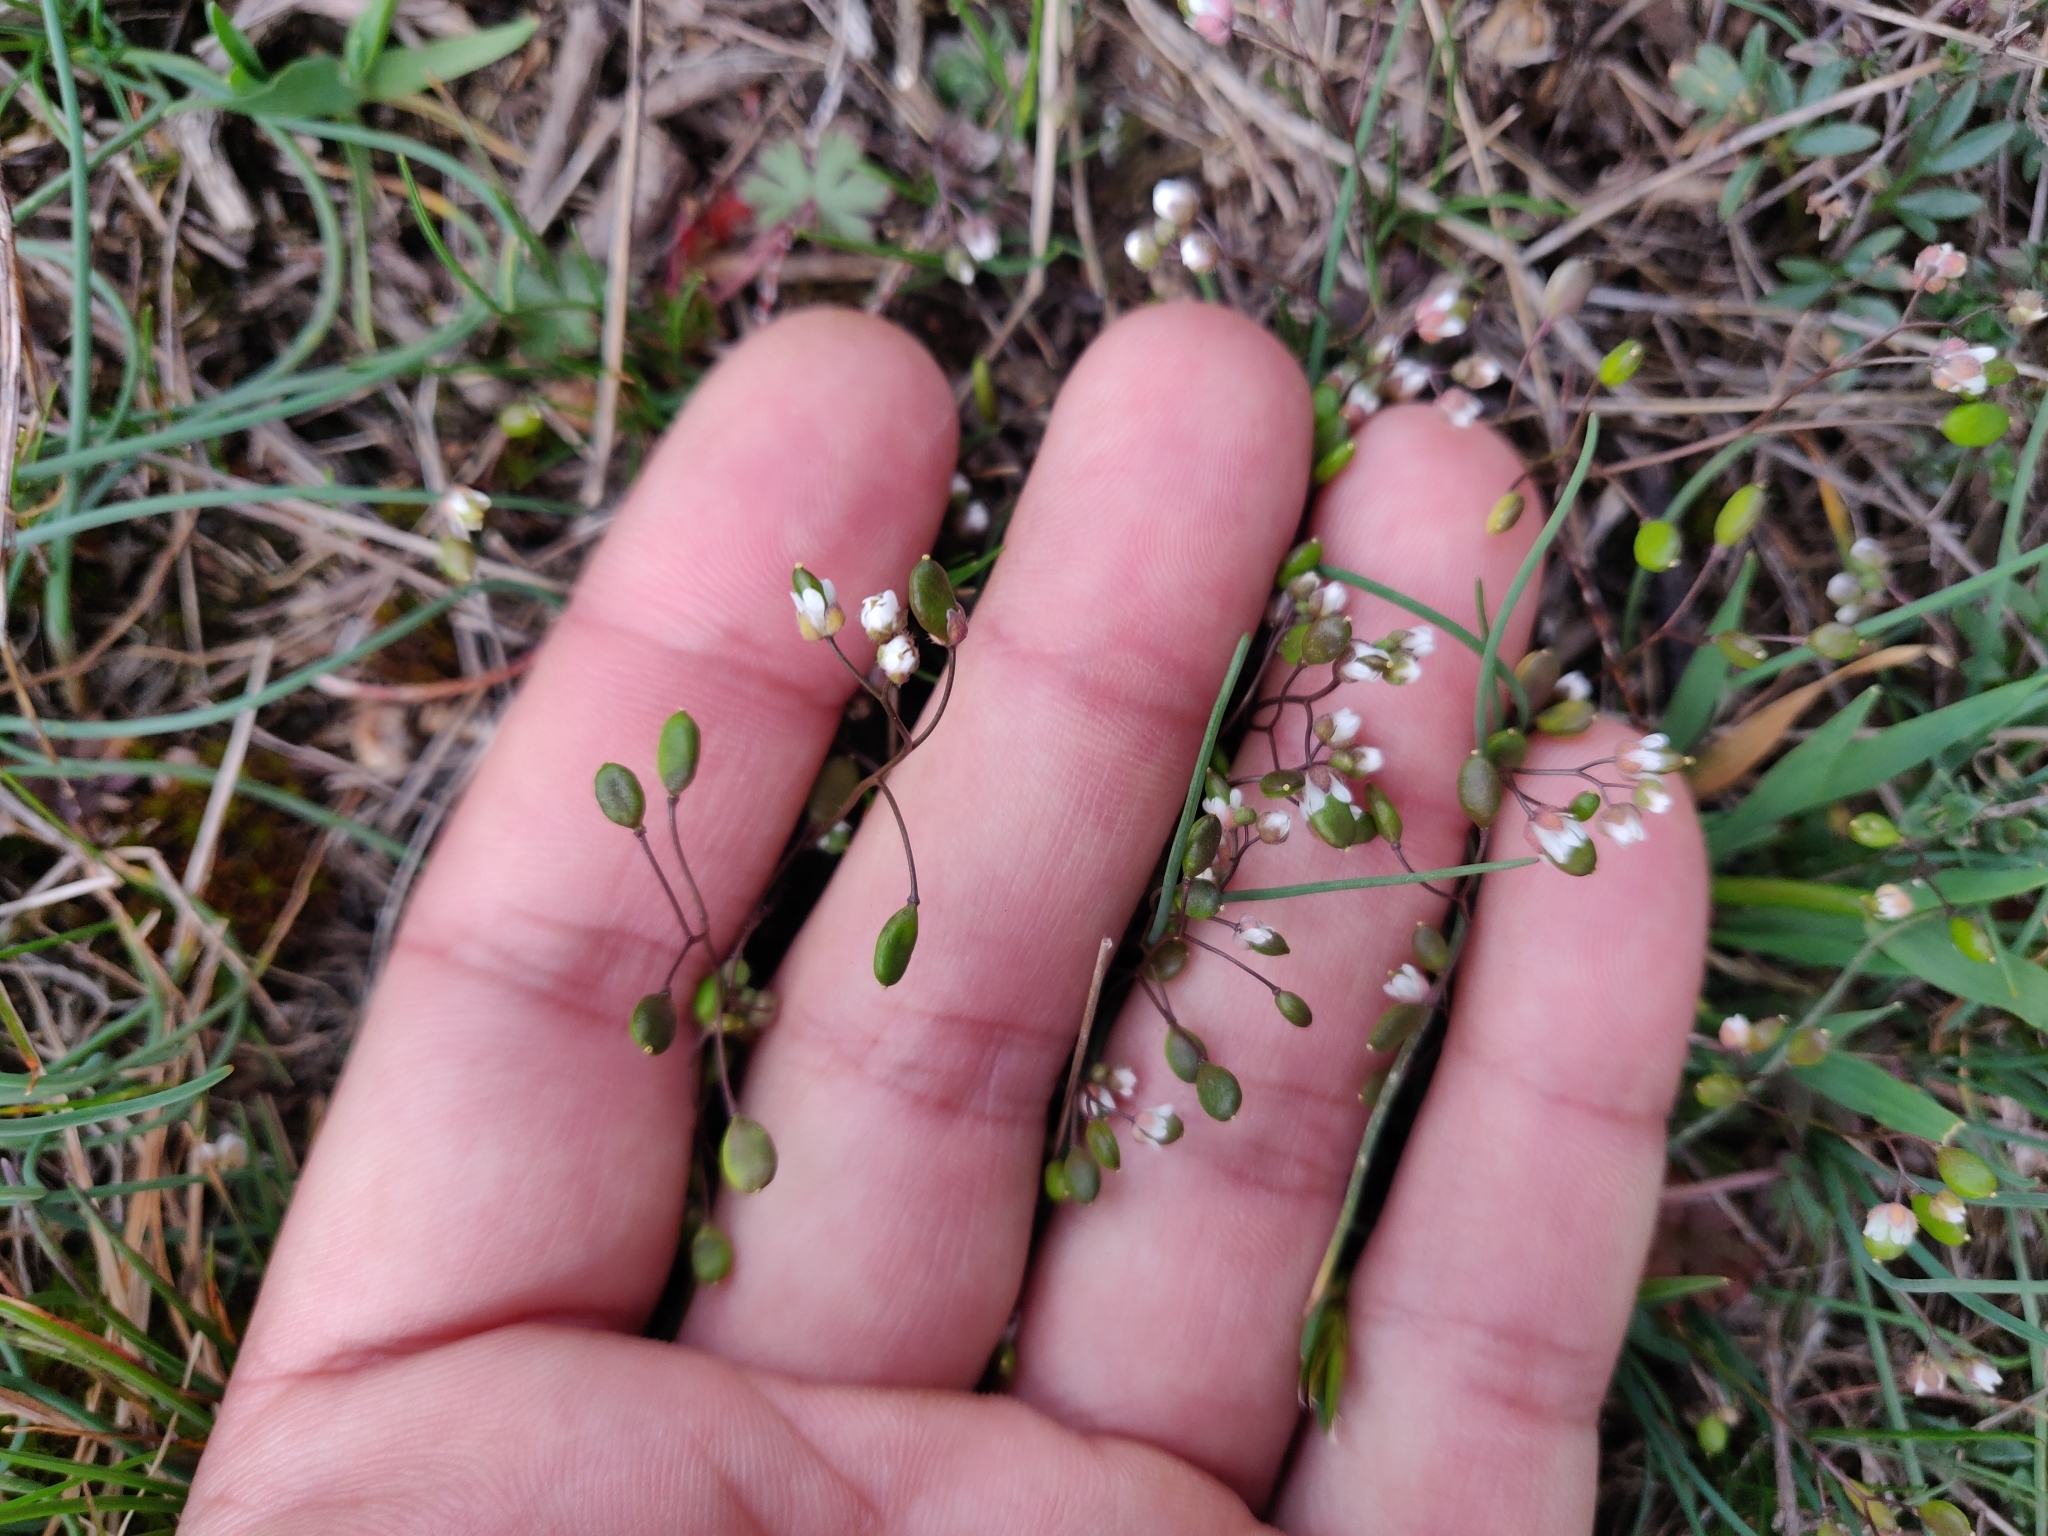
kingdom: Plantae
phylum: Tracheophyta
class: Magnoliopsida
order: Brassicales
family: Brassicaceae
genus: Draba
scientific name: Draba verna
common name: Spring draba
